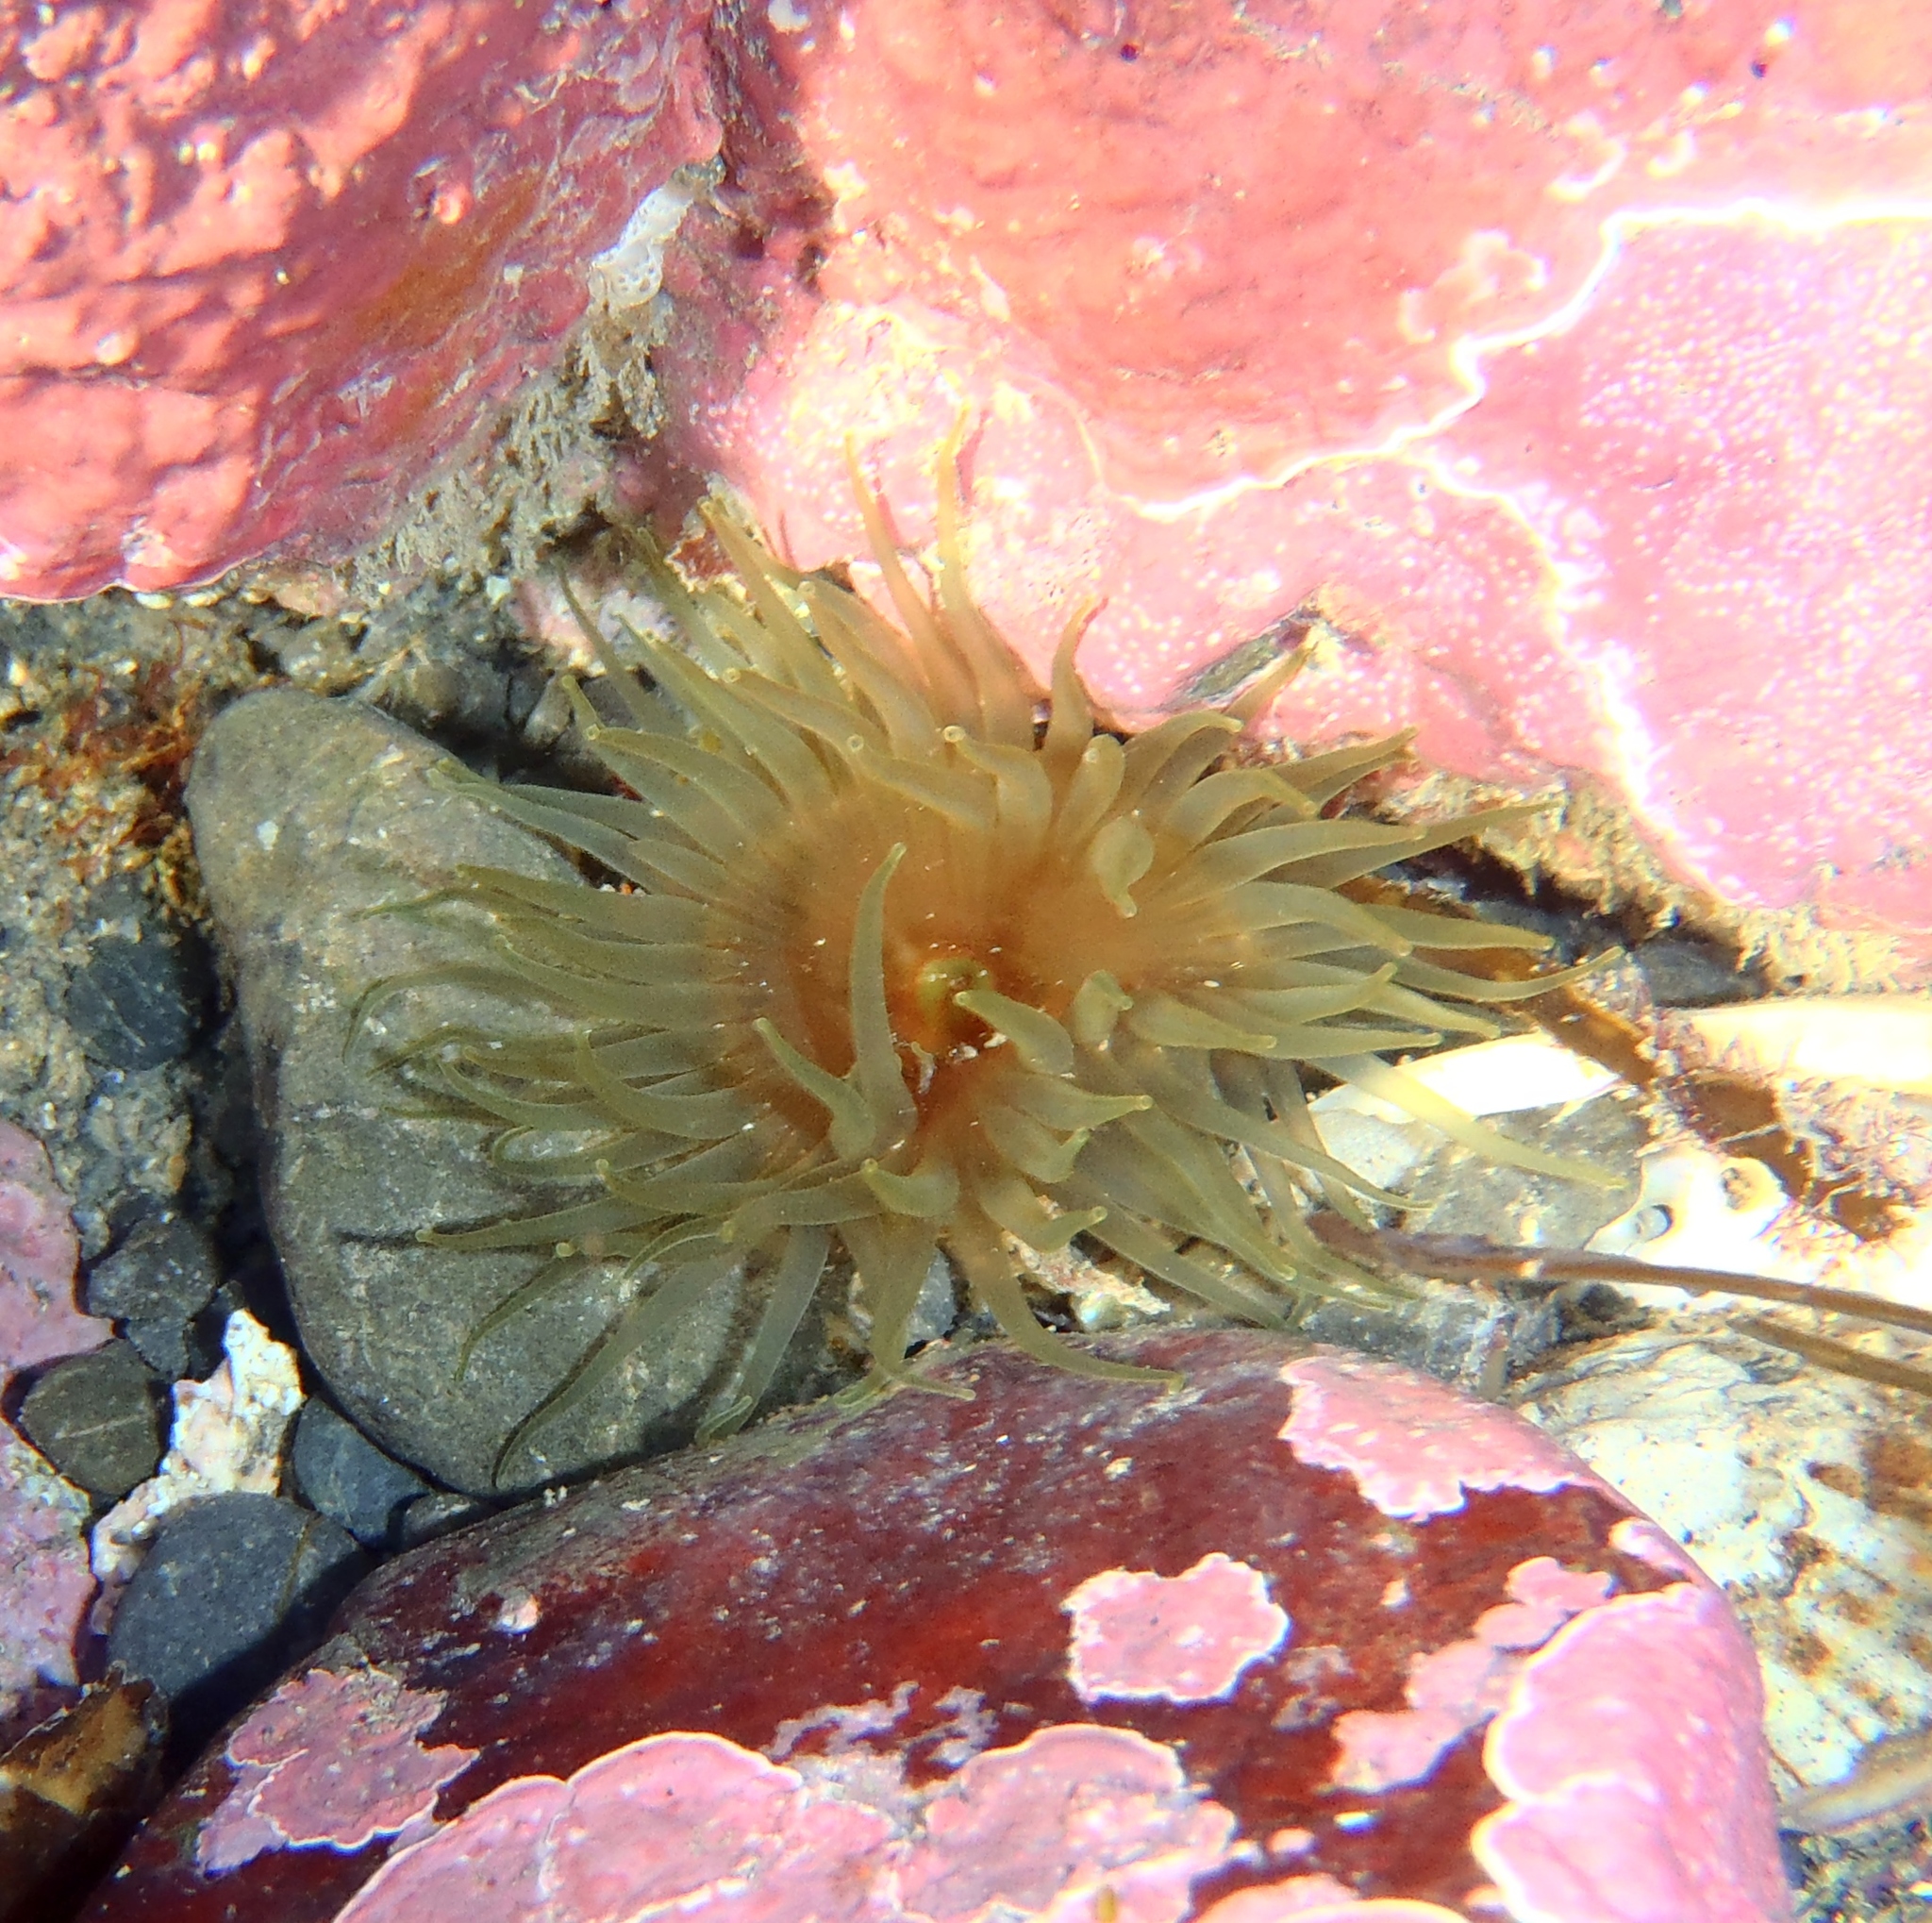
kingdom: Animalia
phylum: Cnidaria
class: Anthozoa
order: Actiniaria
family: Actiniidae
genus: Isactinia
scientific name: Isactinia olivacea
